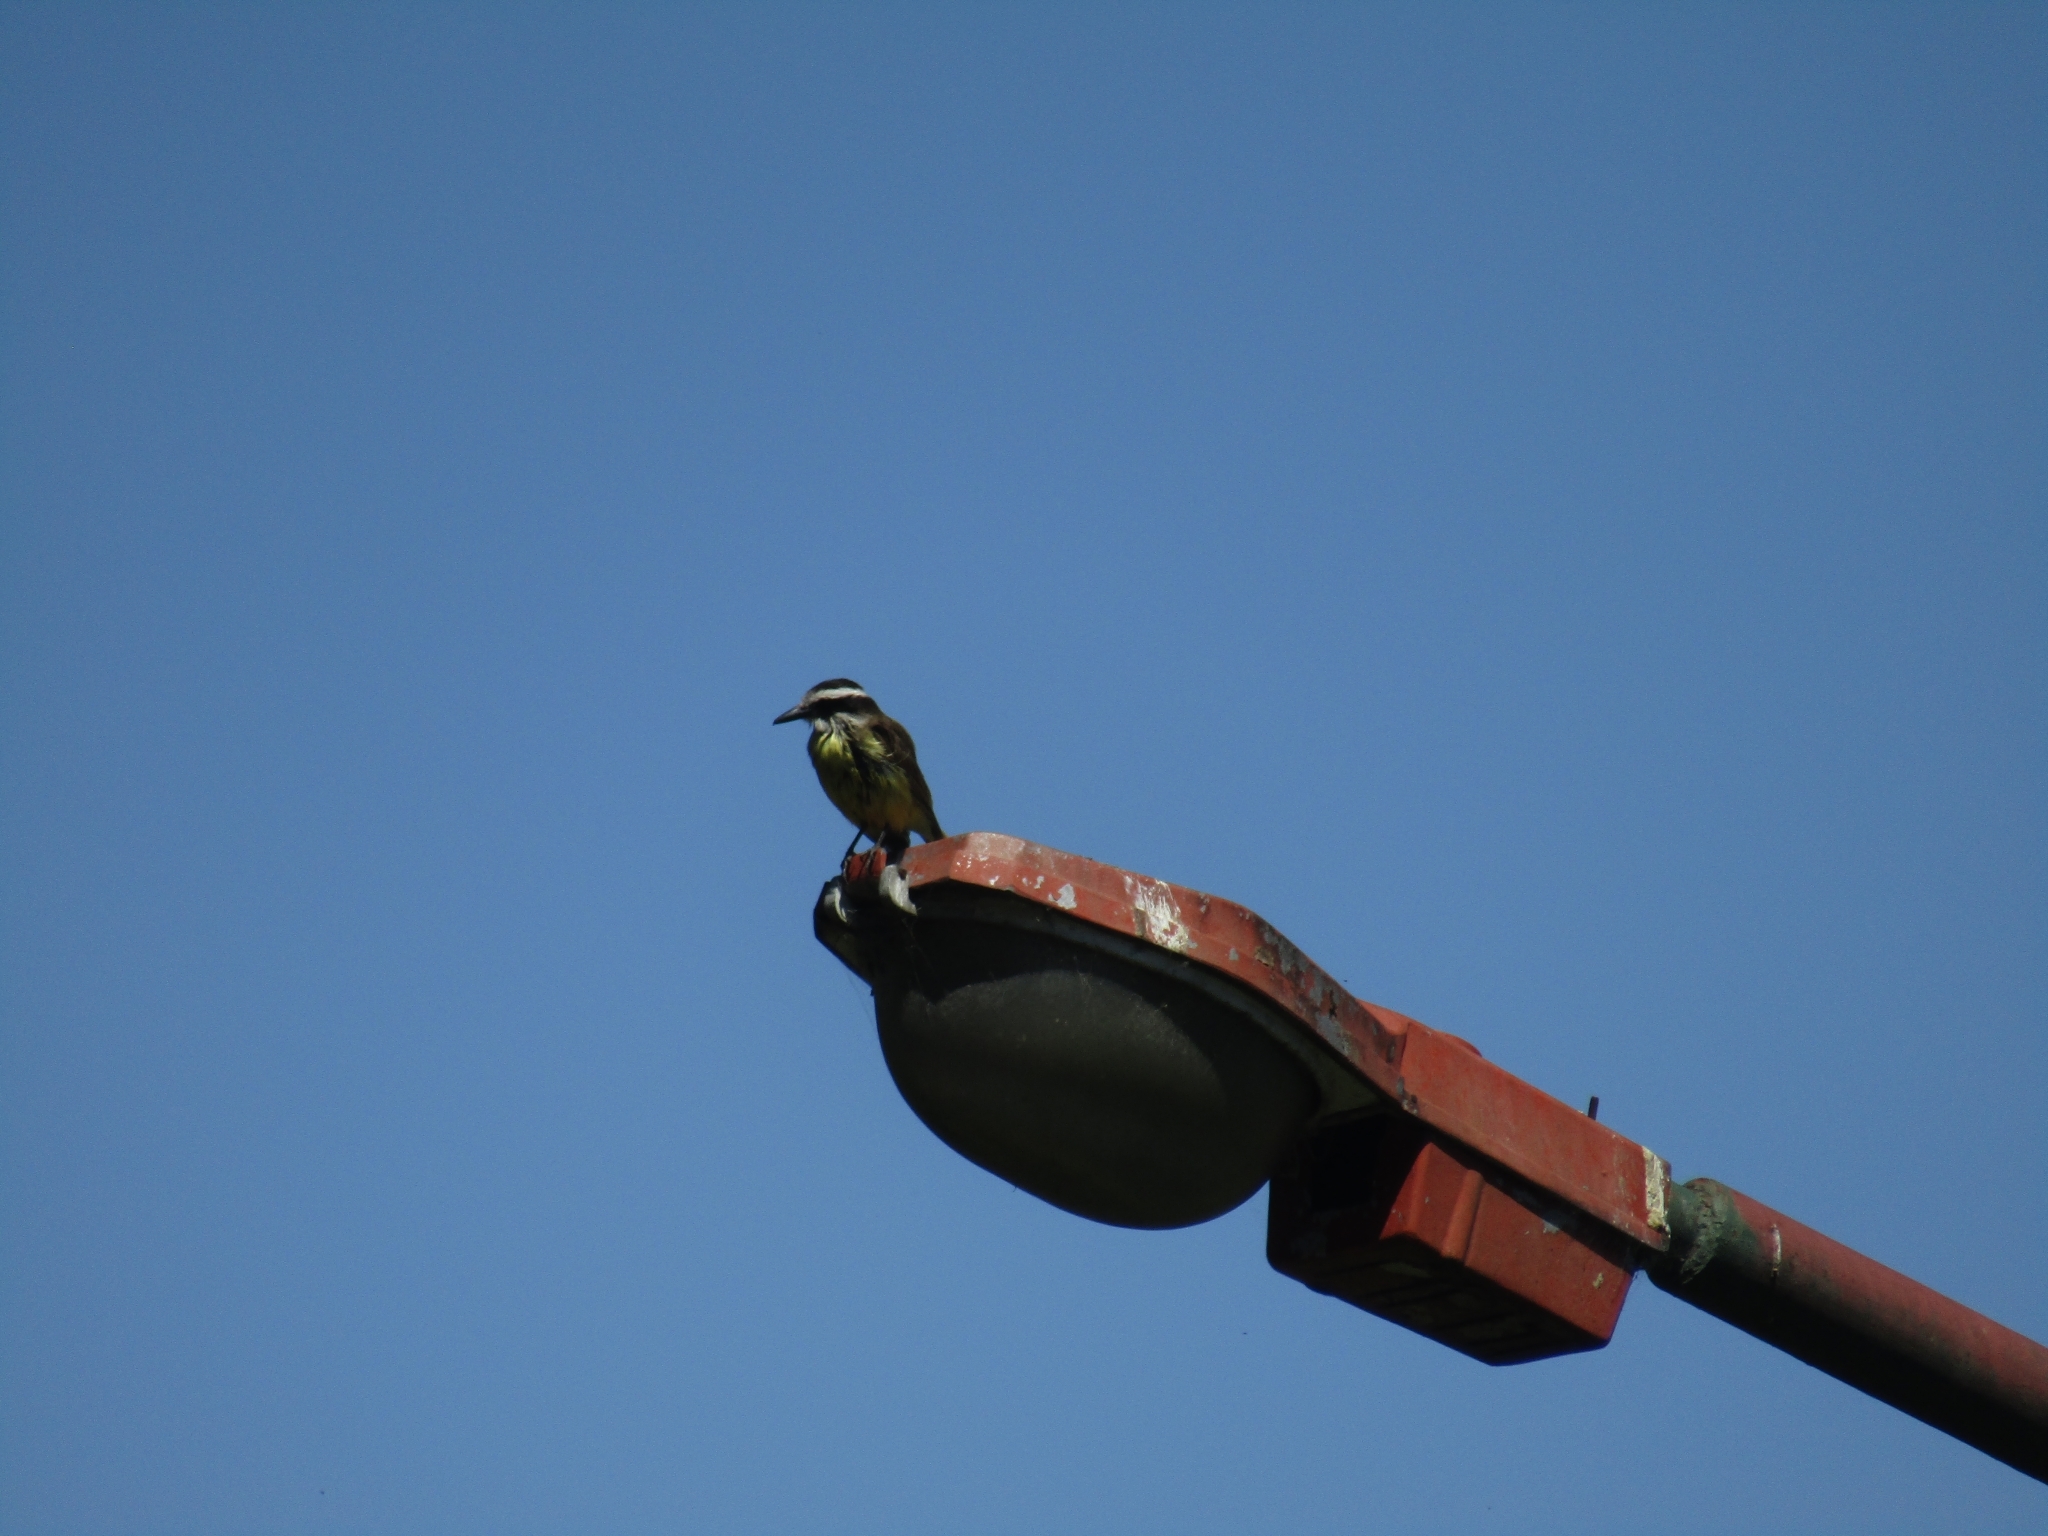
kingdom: Animalia
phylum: Chordata
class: Aves
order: Passeriformes
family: Tyrannidae
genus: Pitangus
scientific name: Pitangus sulphuratus
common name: Great kiskadee
